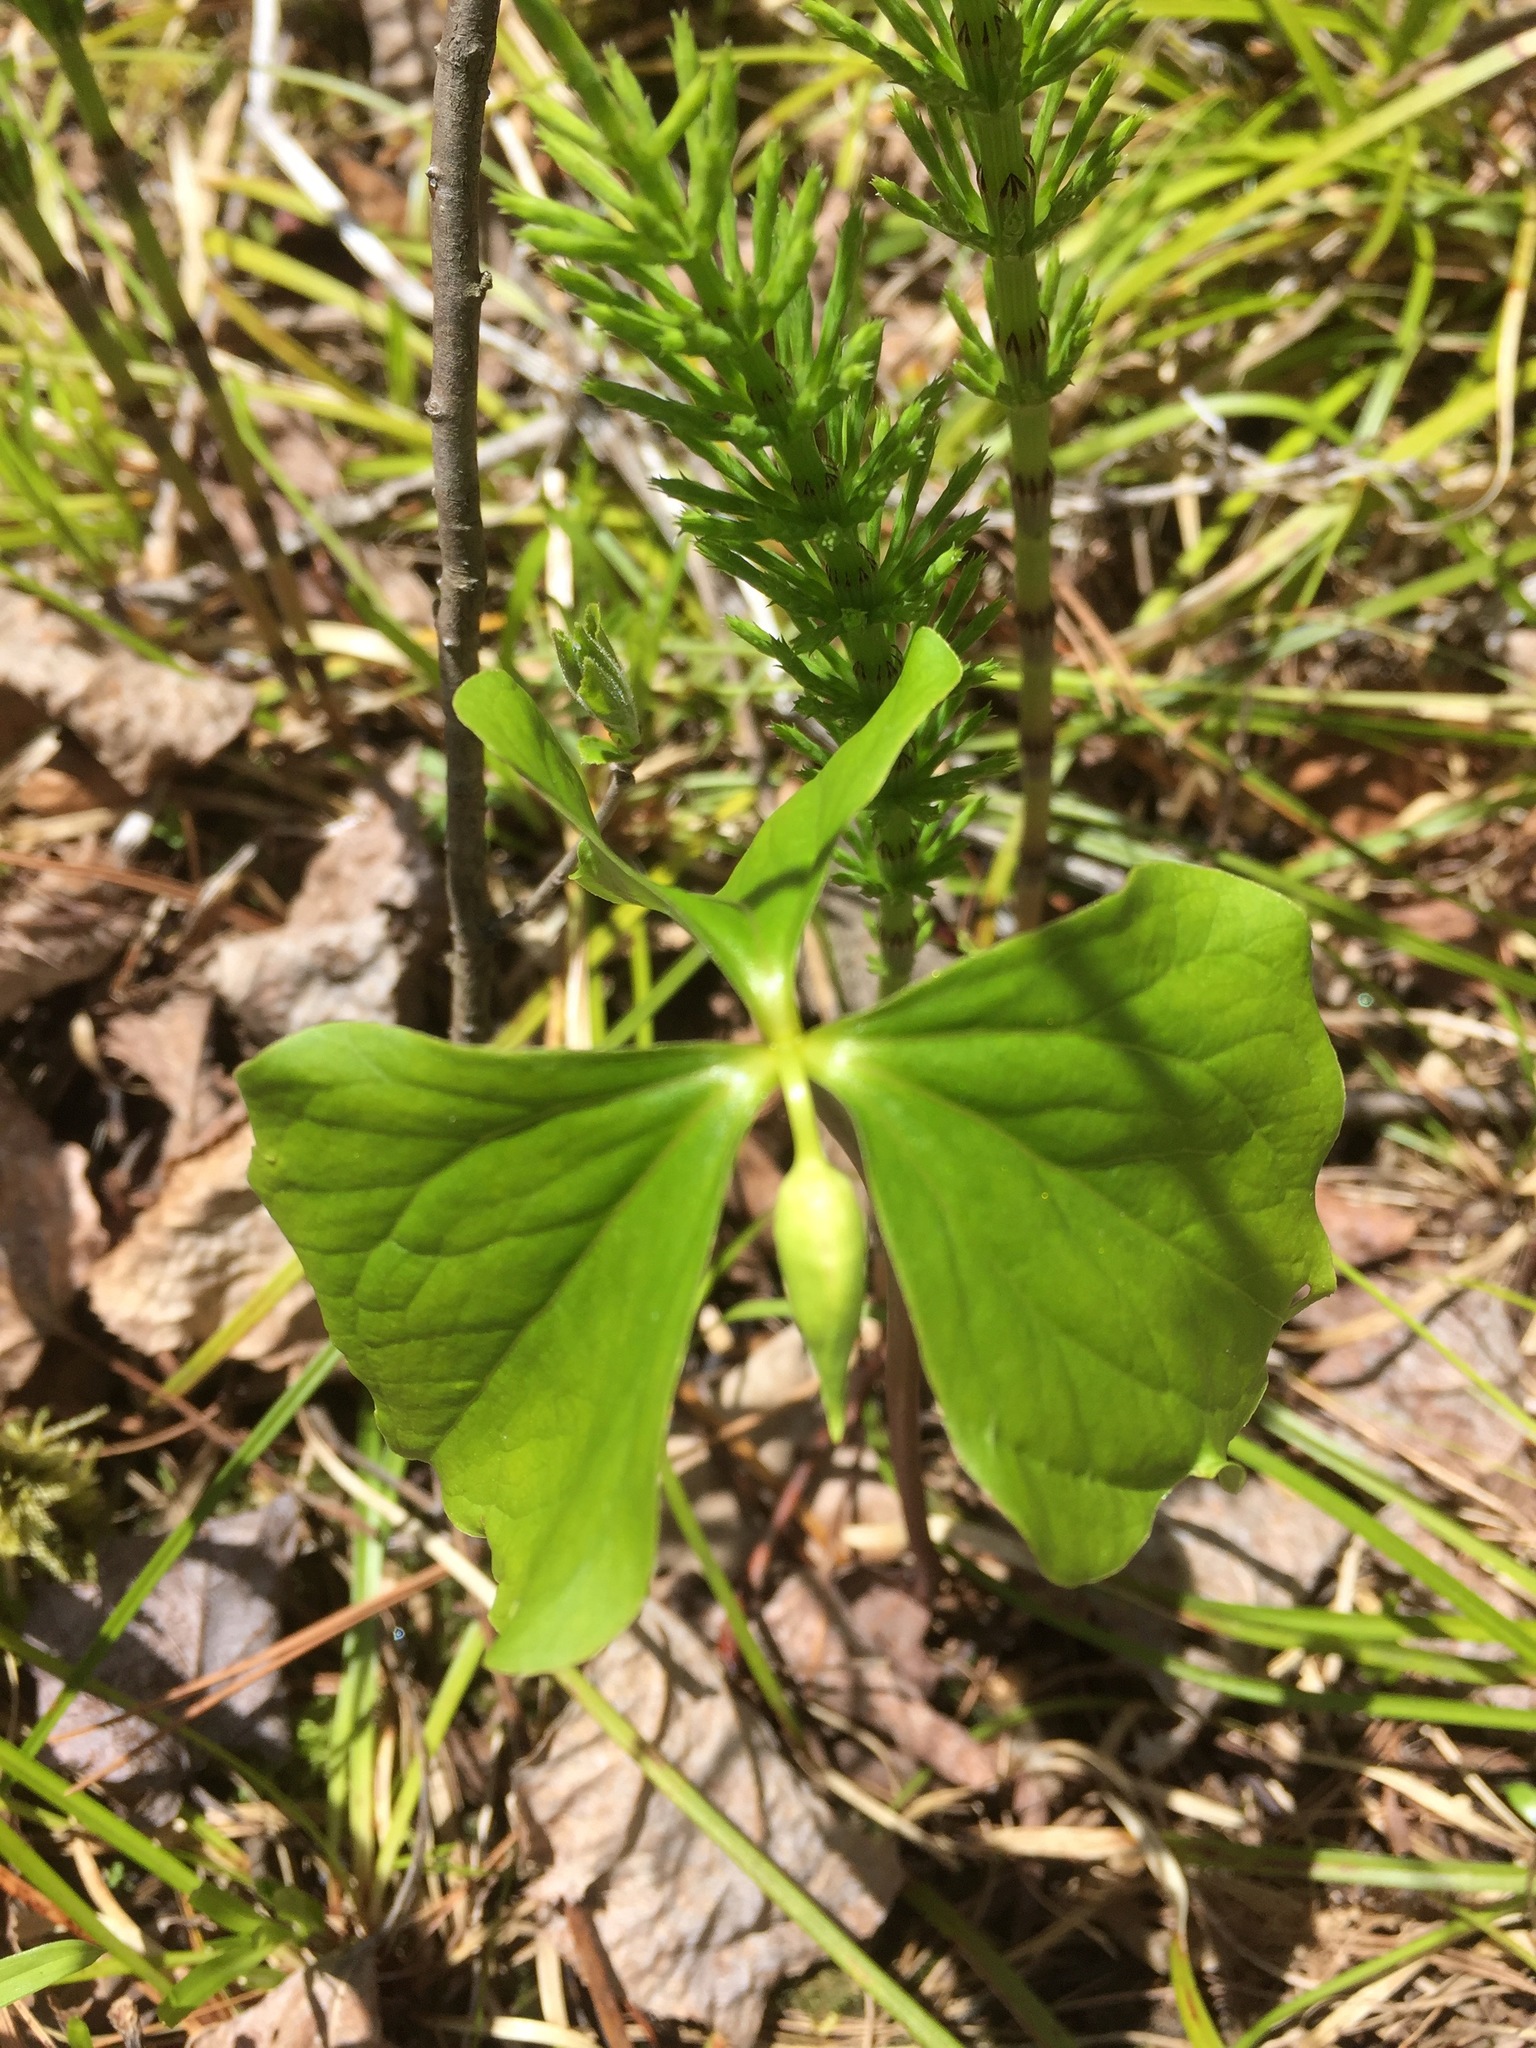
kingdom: Plantae
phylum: Tracheophyta
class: Liliopsida
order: Liliales
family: Melanthiaceae
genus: Trillium
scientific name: Trillium cernuum
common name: Nodding trillium
